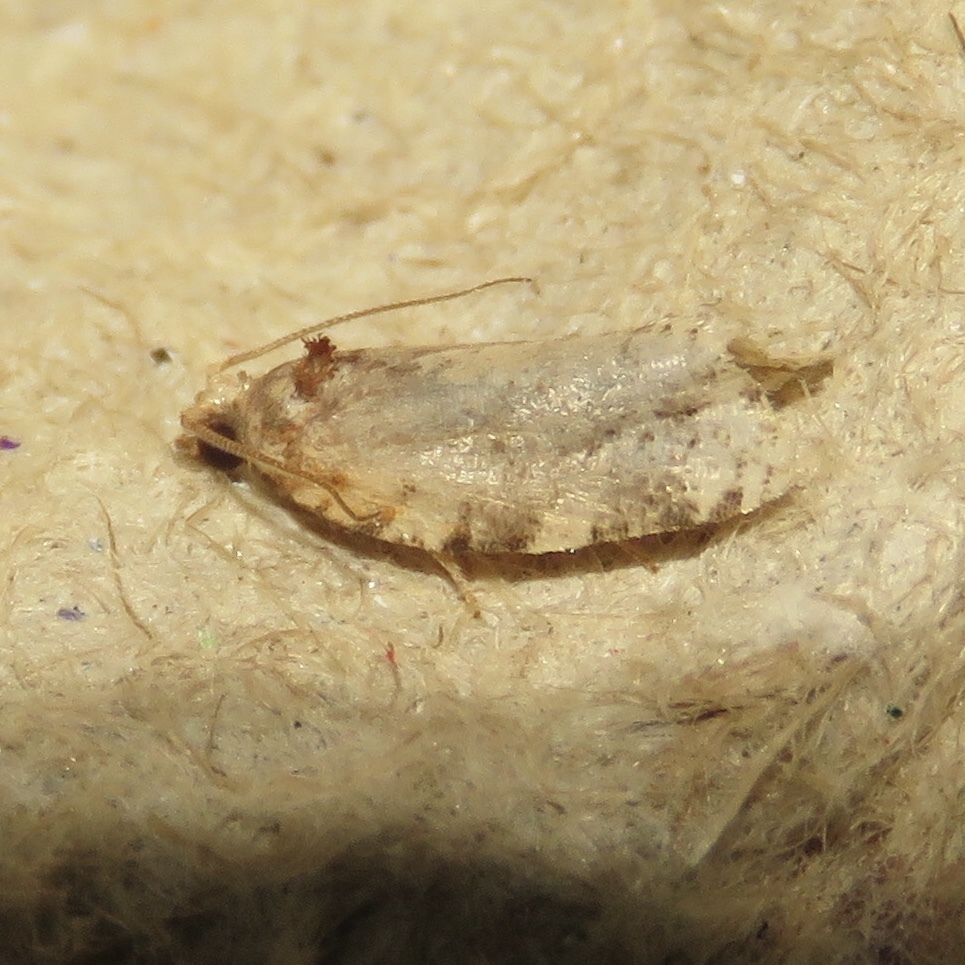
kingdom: Animalia
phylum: Arthropoda
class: Insecta
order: Lepidoptera
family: Tortricidae
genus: Archips
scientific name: Archips semiferanus
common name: Oak leafroller
